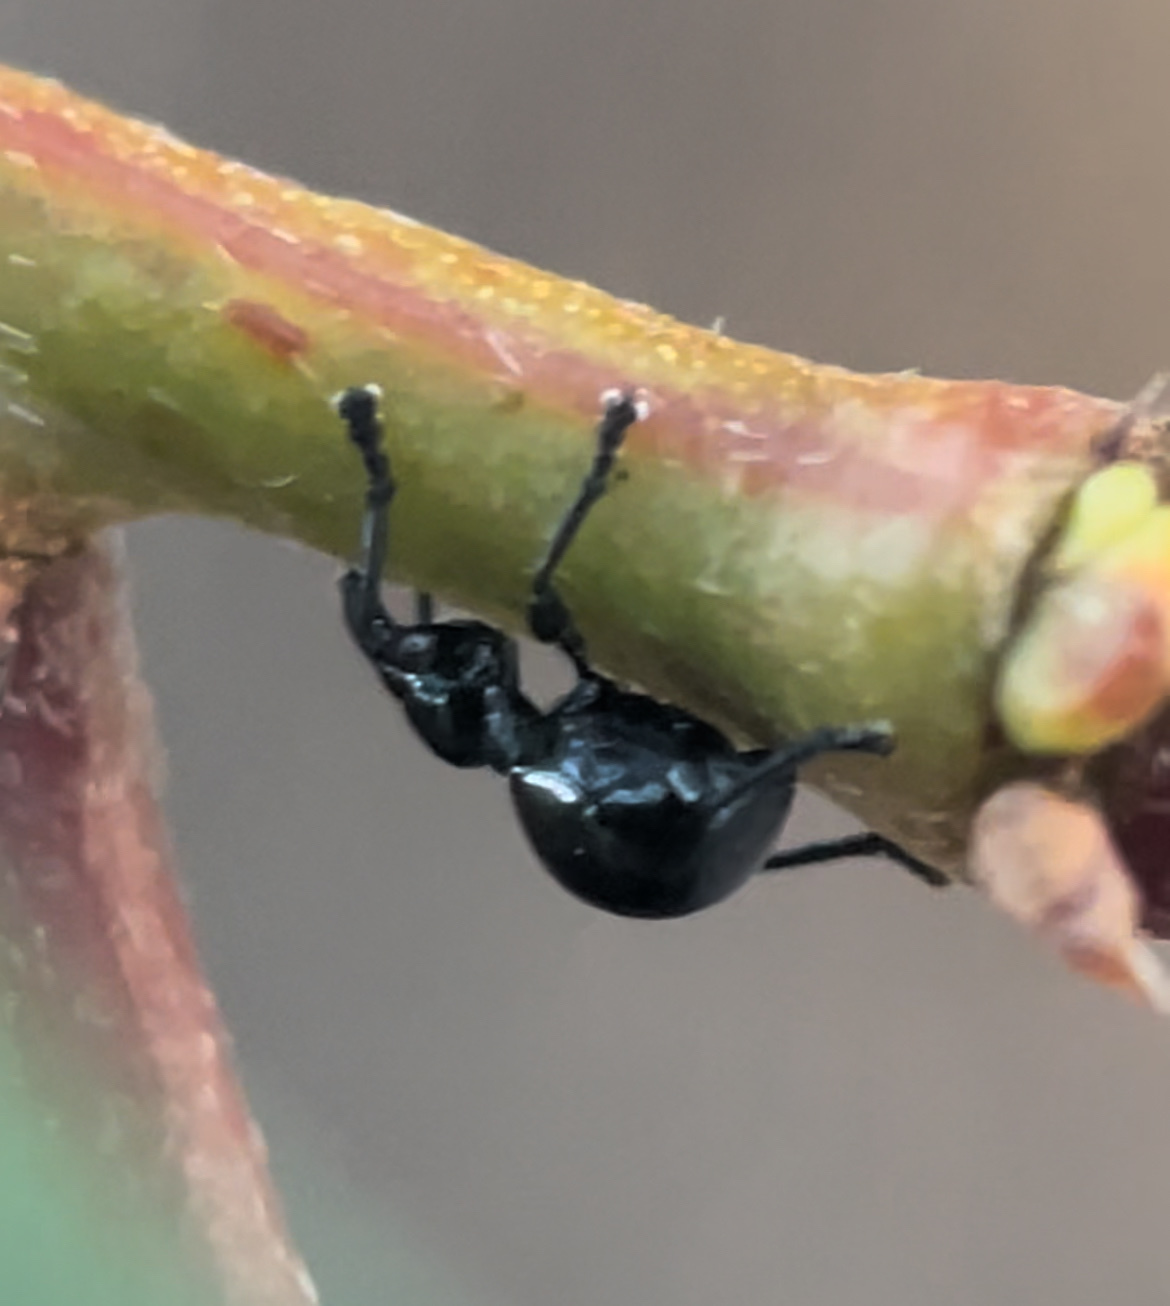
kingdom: Animalia
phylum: Arthropoda
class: Insecta
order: Coleoptera
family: Brentidae
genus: Rhynolaccus
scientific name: Rhynolaccus formicarius
